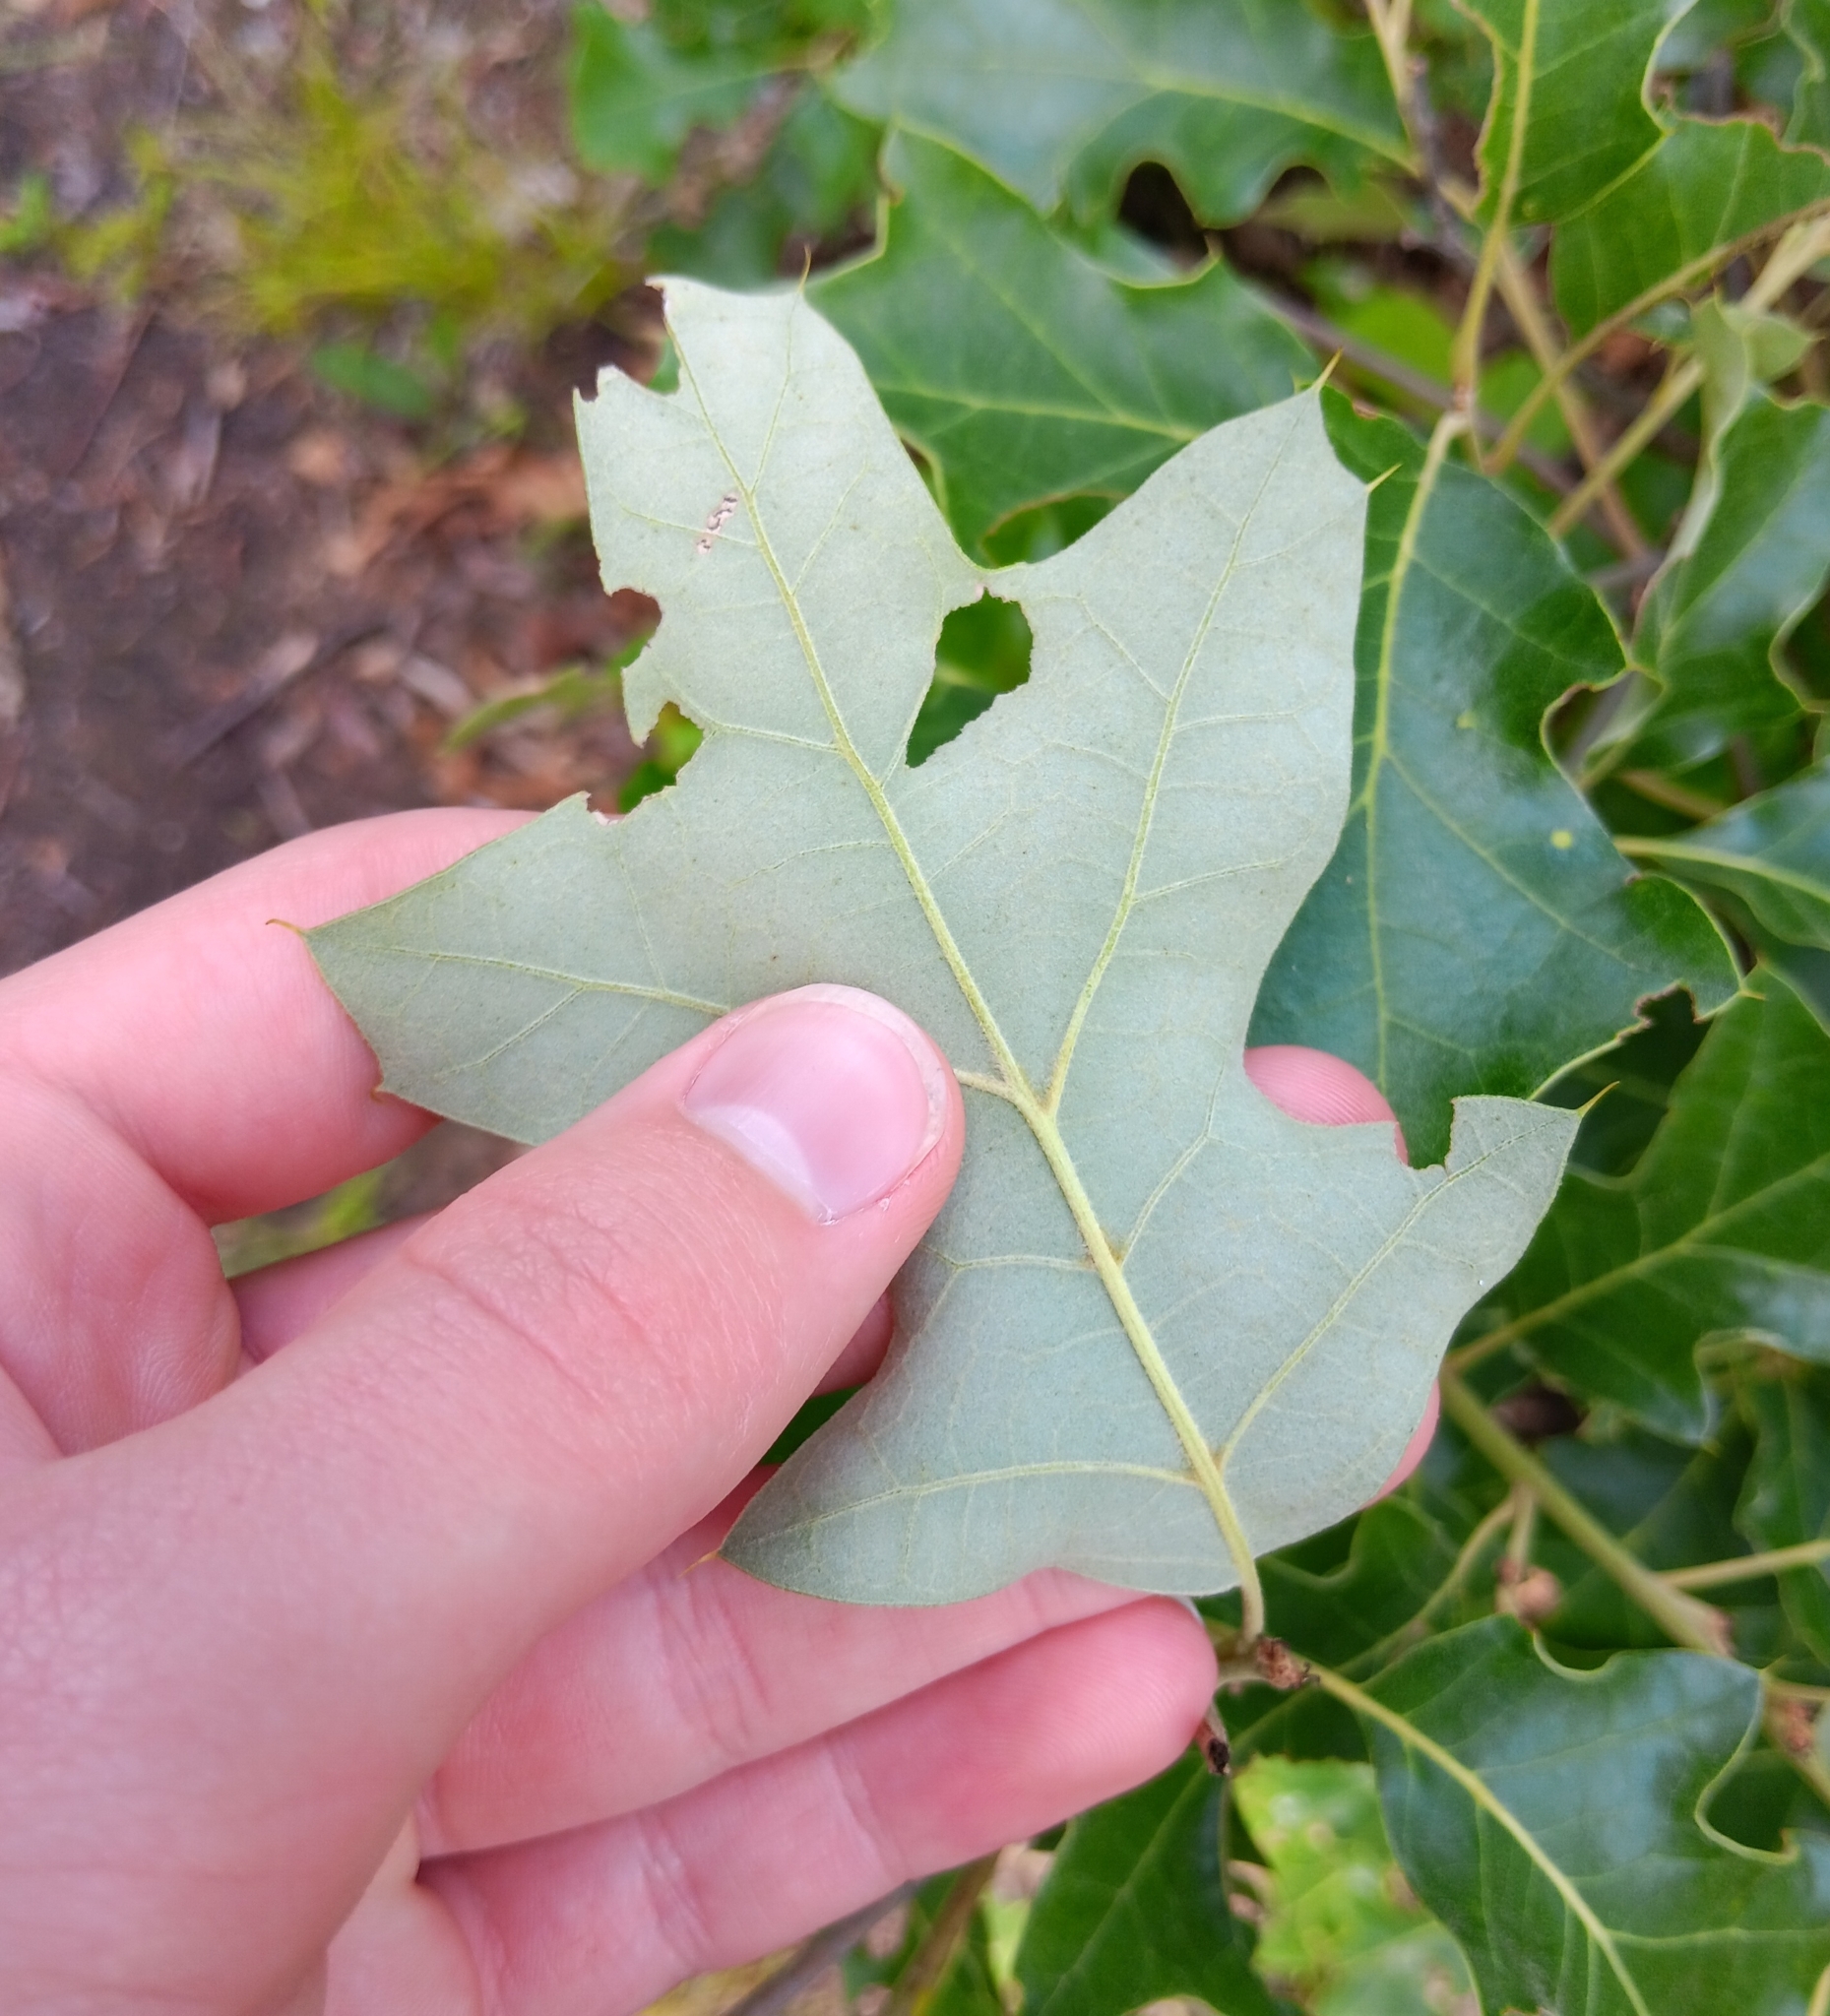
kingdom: Plantae
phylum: Tracheophyta
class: Magnoliopsida
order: Fagales
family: Fagaceae
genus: Quercus
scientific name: Quercus ilicifolia
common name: Bear oak
